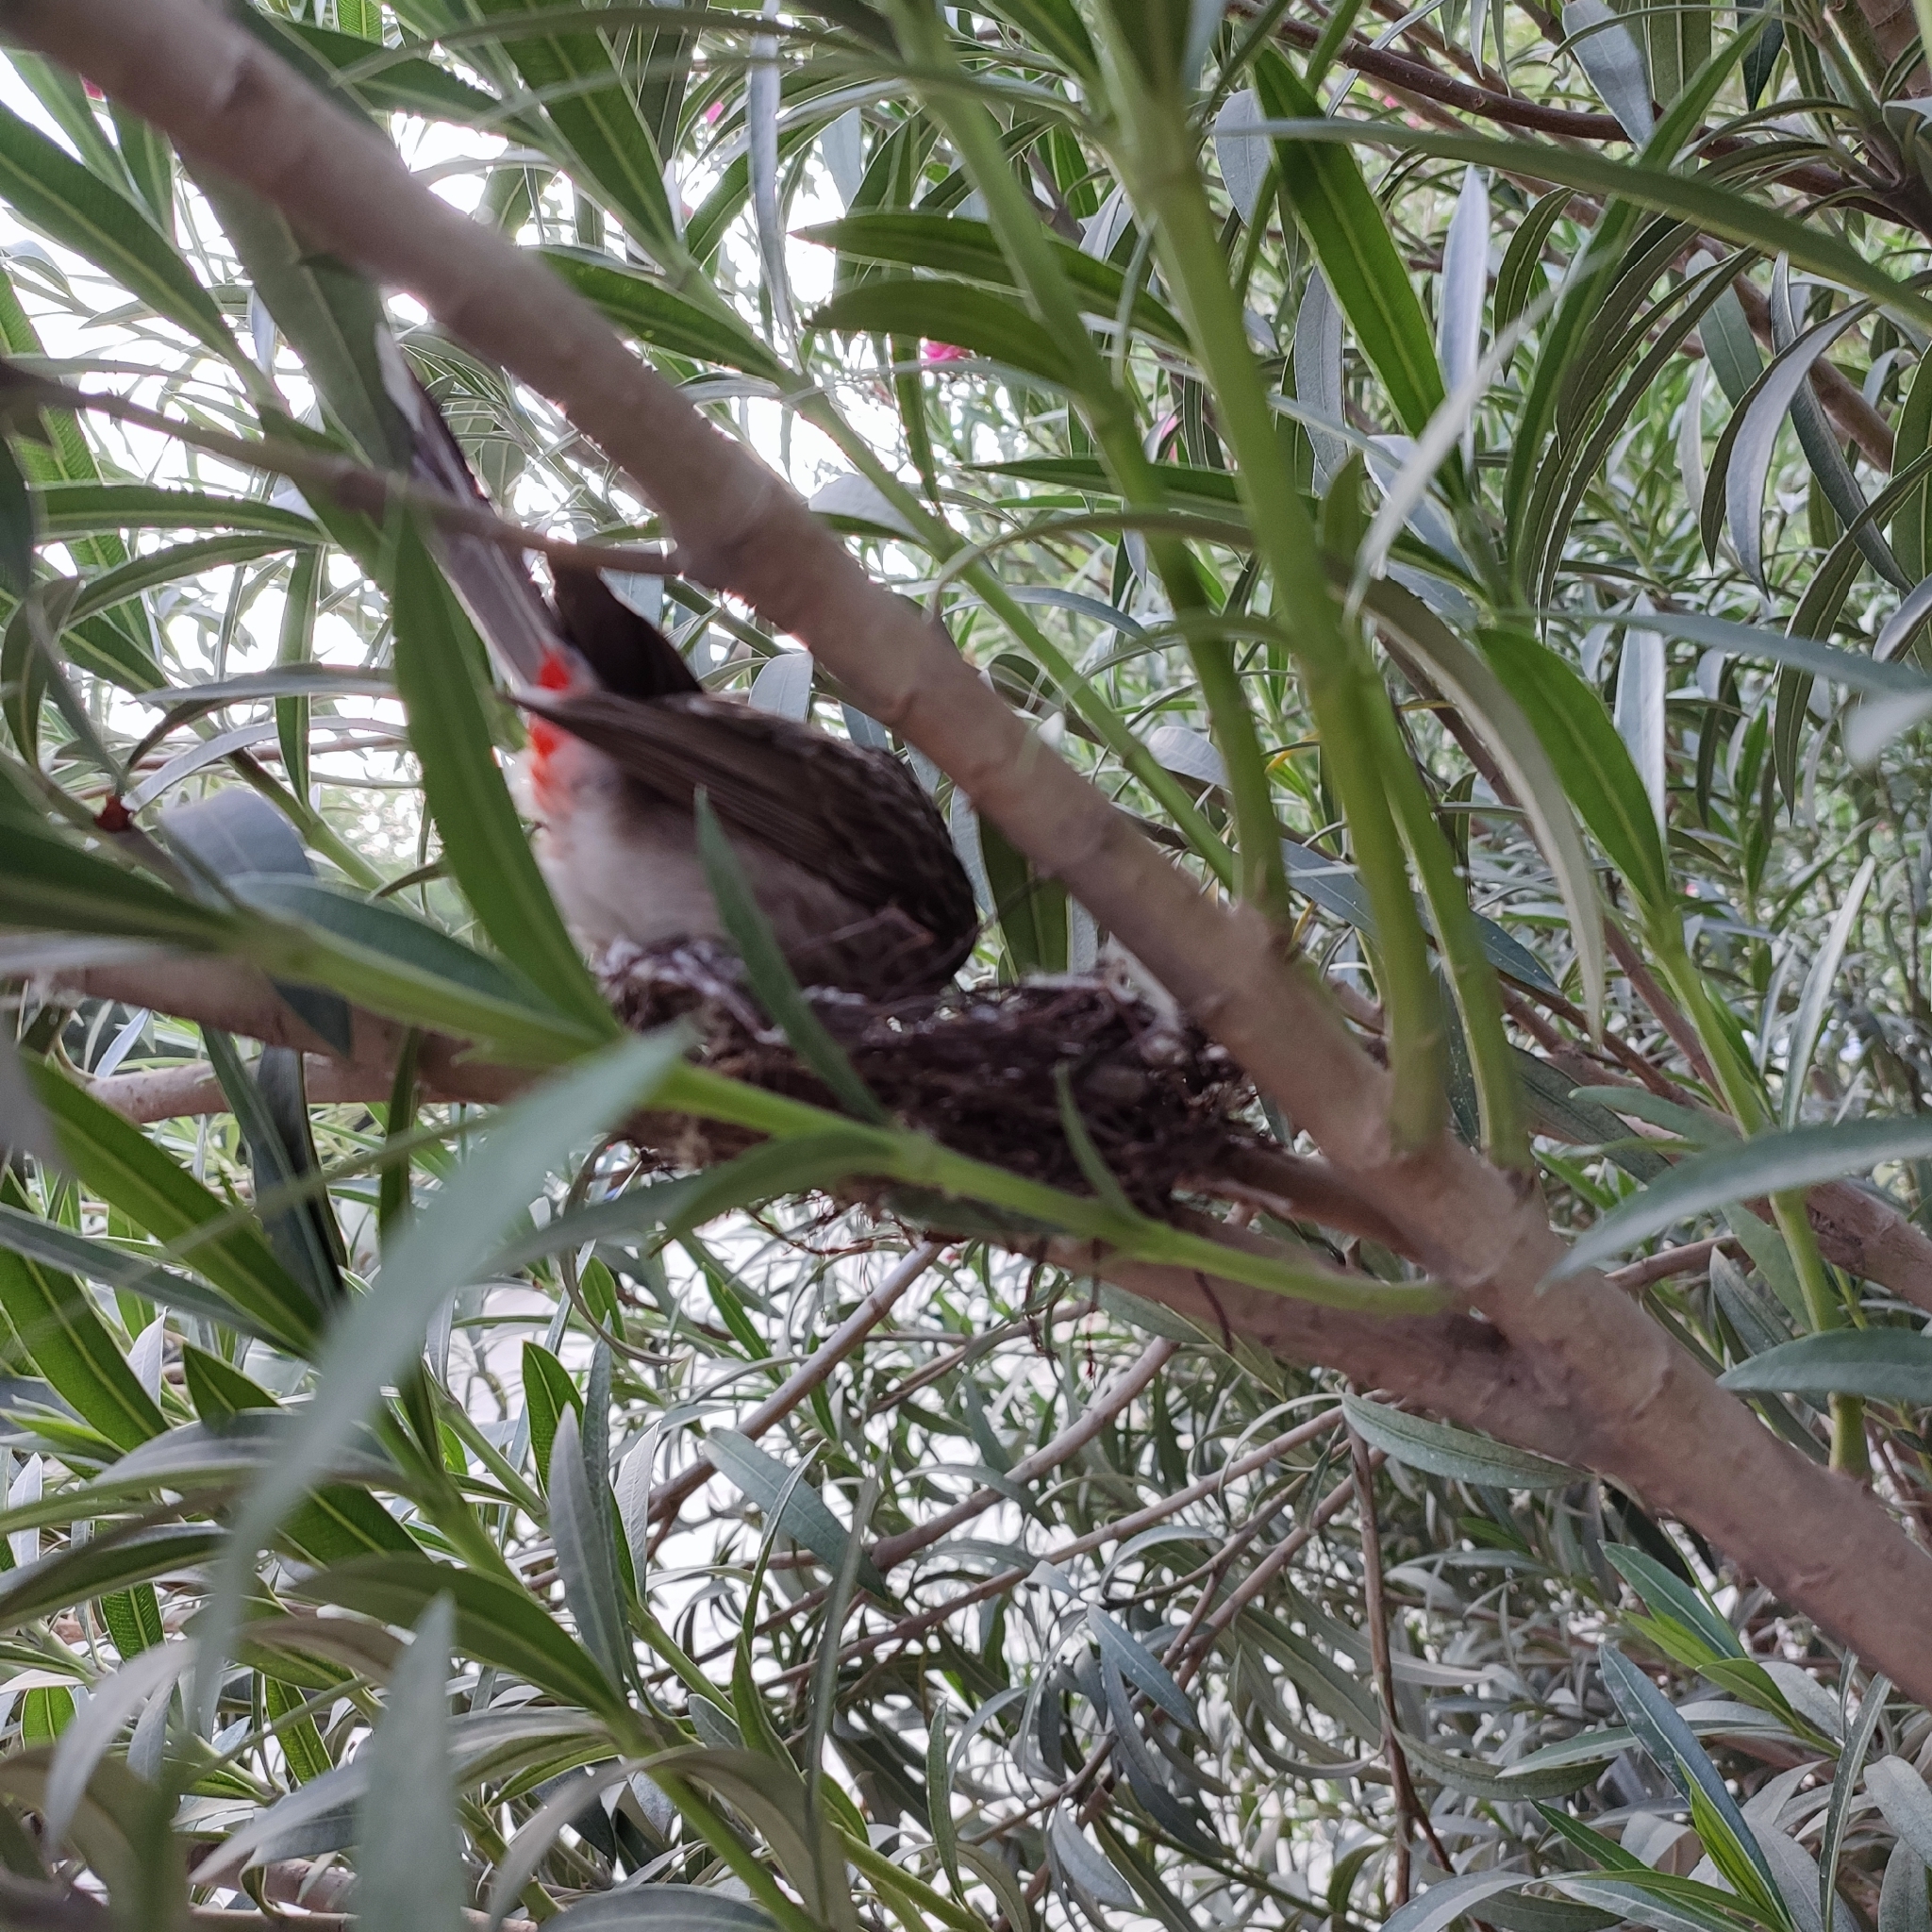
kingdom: Animalia
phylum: Chordata
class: Aves
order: Passeriformes
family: Pycnonotidae
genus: Pycnonotus
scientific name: Pycnonotus cafer
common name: Red-vented bulbul
